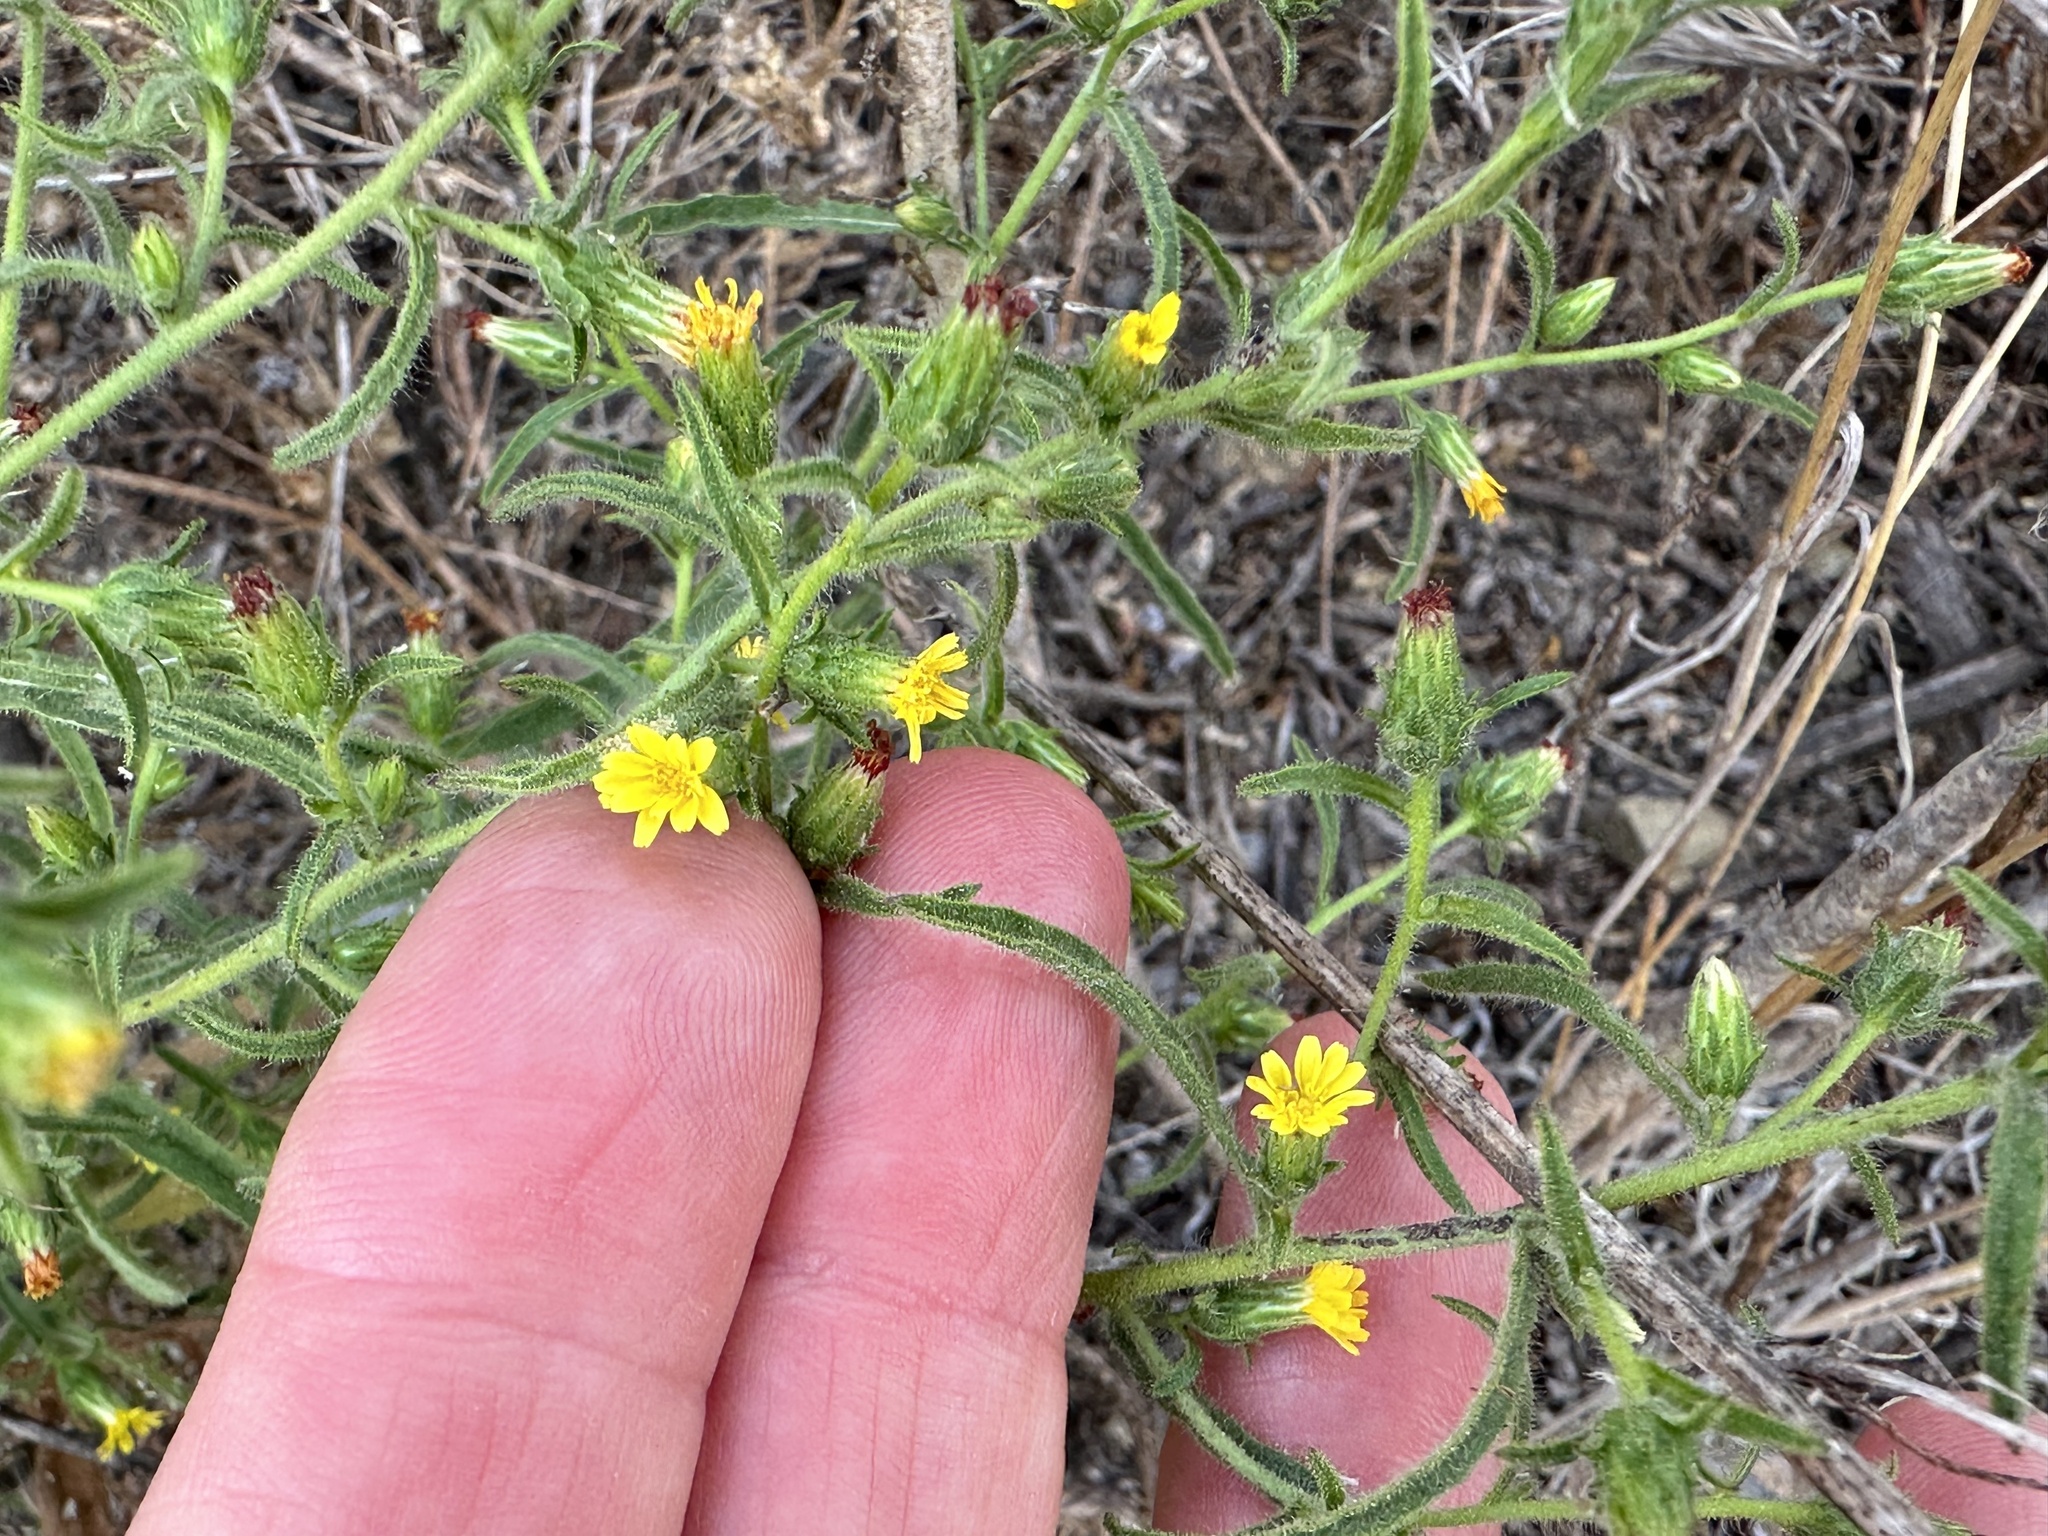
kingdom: Plantae
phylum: Tracheophyta
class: Magnoliopsida
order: Asterales
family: Asteraceae
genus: Dittrichia
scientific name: Dittrichia graveolens
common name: Stinking fleabane
